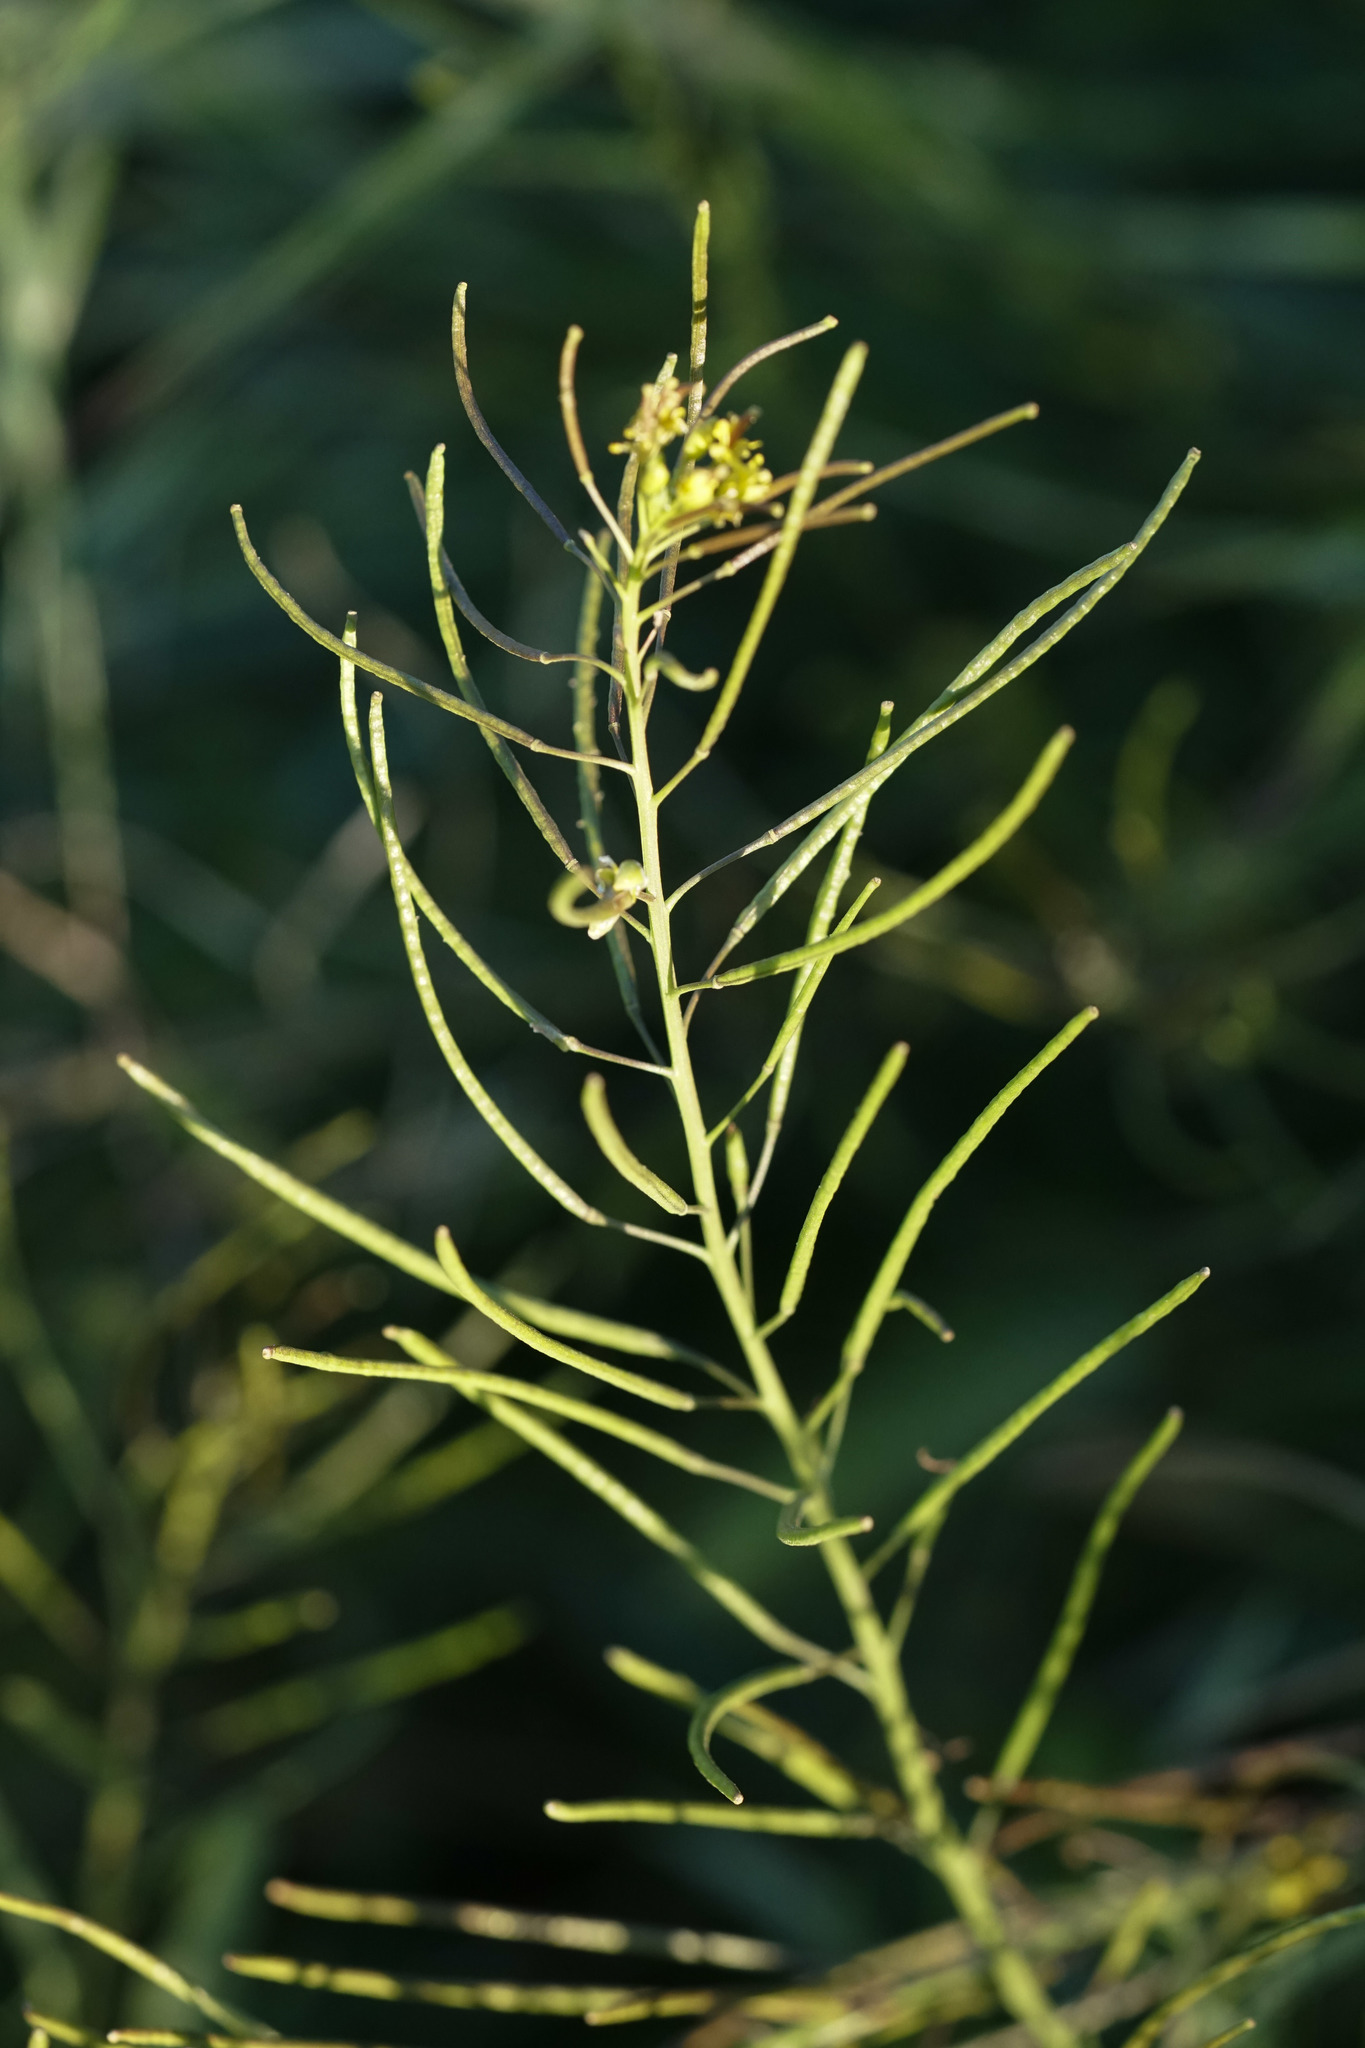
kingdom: Plantae
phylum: Tracheophyta
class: Magnoliopsida
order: Brassicales
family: Brassicaceae
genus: Sisymbrium
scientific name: Sisymbrium irio
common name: London rocket
